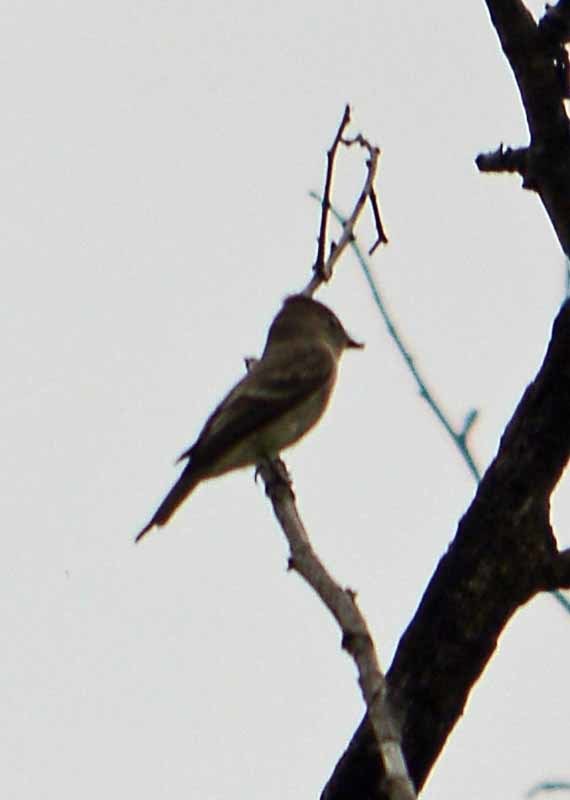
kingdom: Animalia
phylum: Chordata
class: Aves
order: Passeriformes
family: Tyrannidae
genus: Contopus
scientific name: Contopus sordidulus
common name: Western wood-pewee
